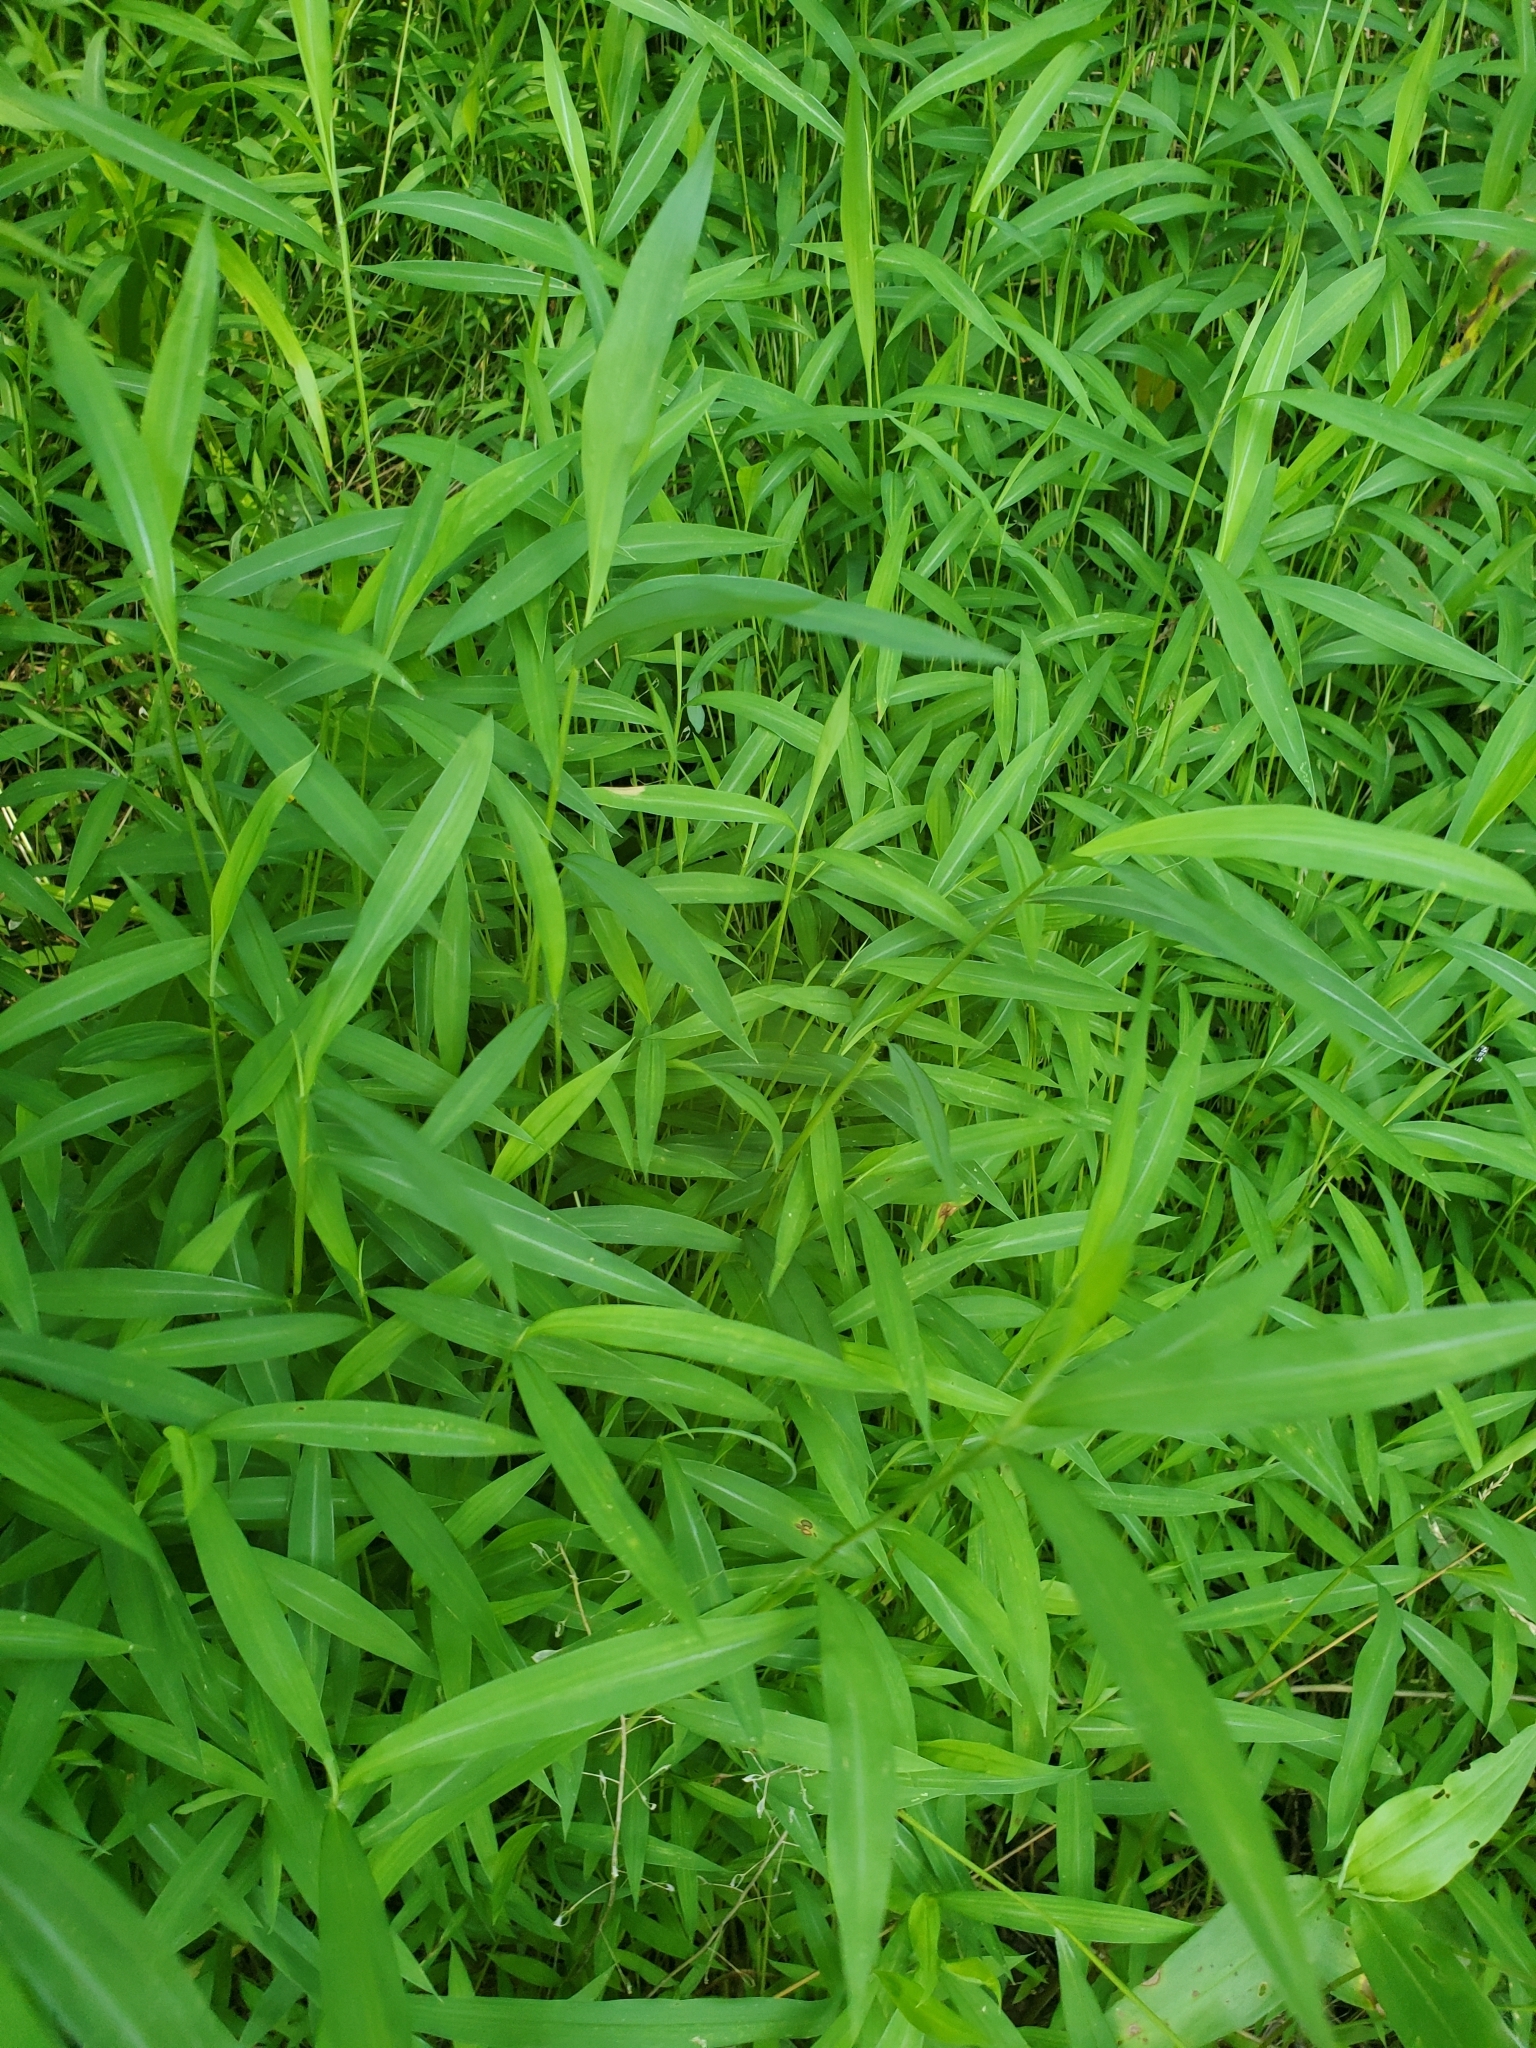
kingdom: Plantae
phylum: Tracheophyta
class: Liliopsida
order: Poales
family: Poaceae
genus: Microstegium
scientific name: Microstegium vimineum
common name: Japanese stiltgrass
